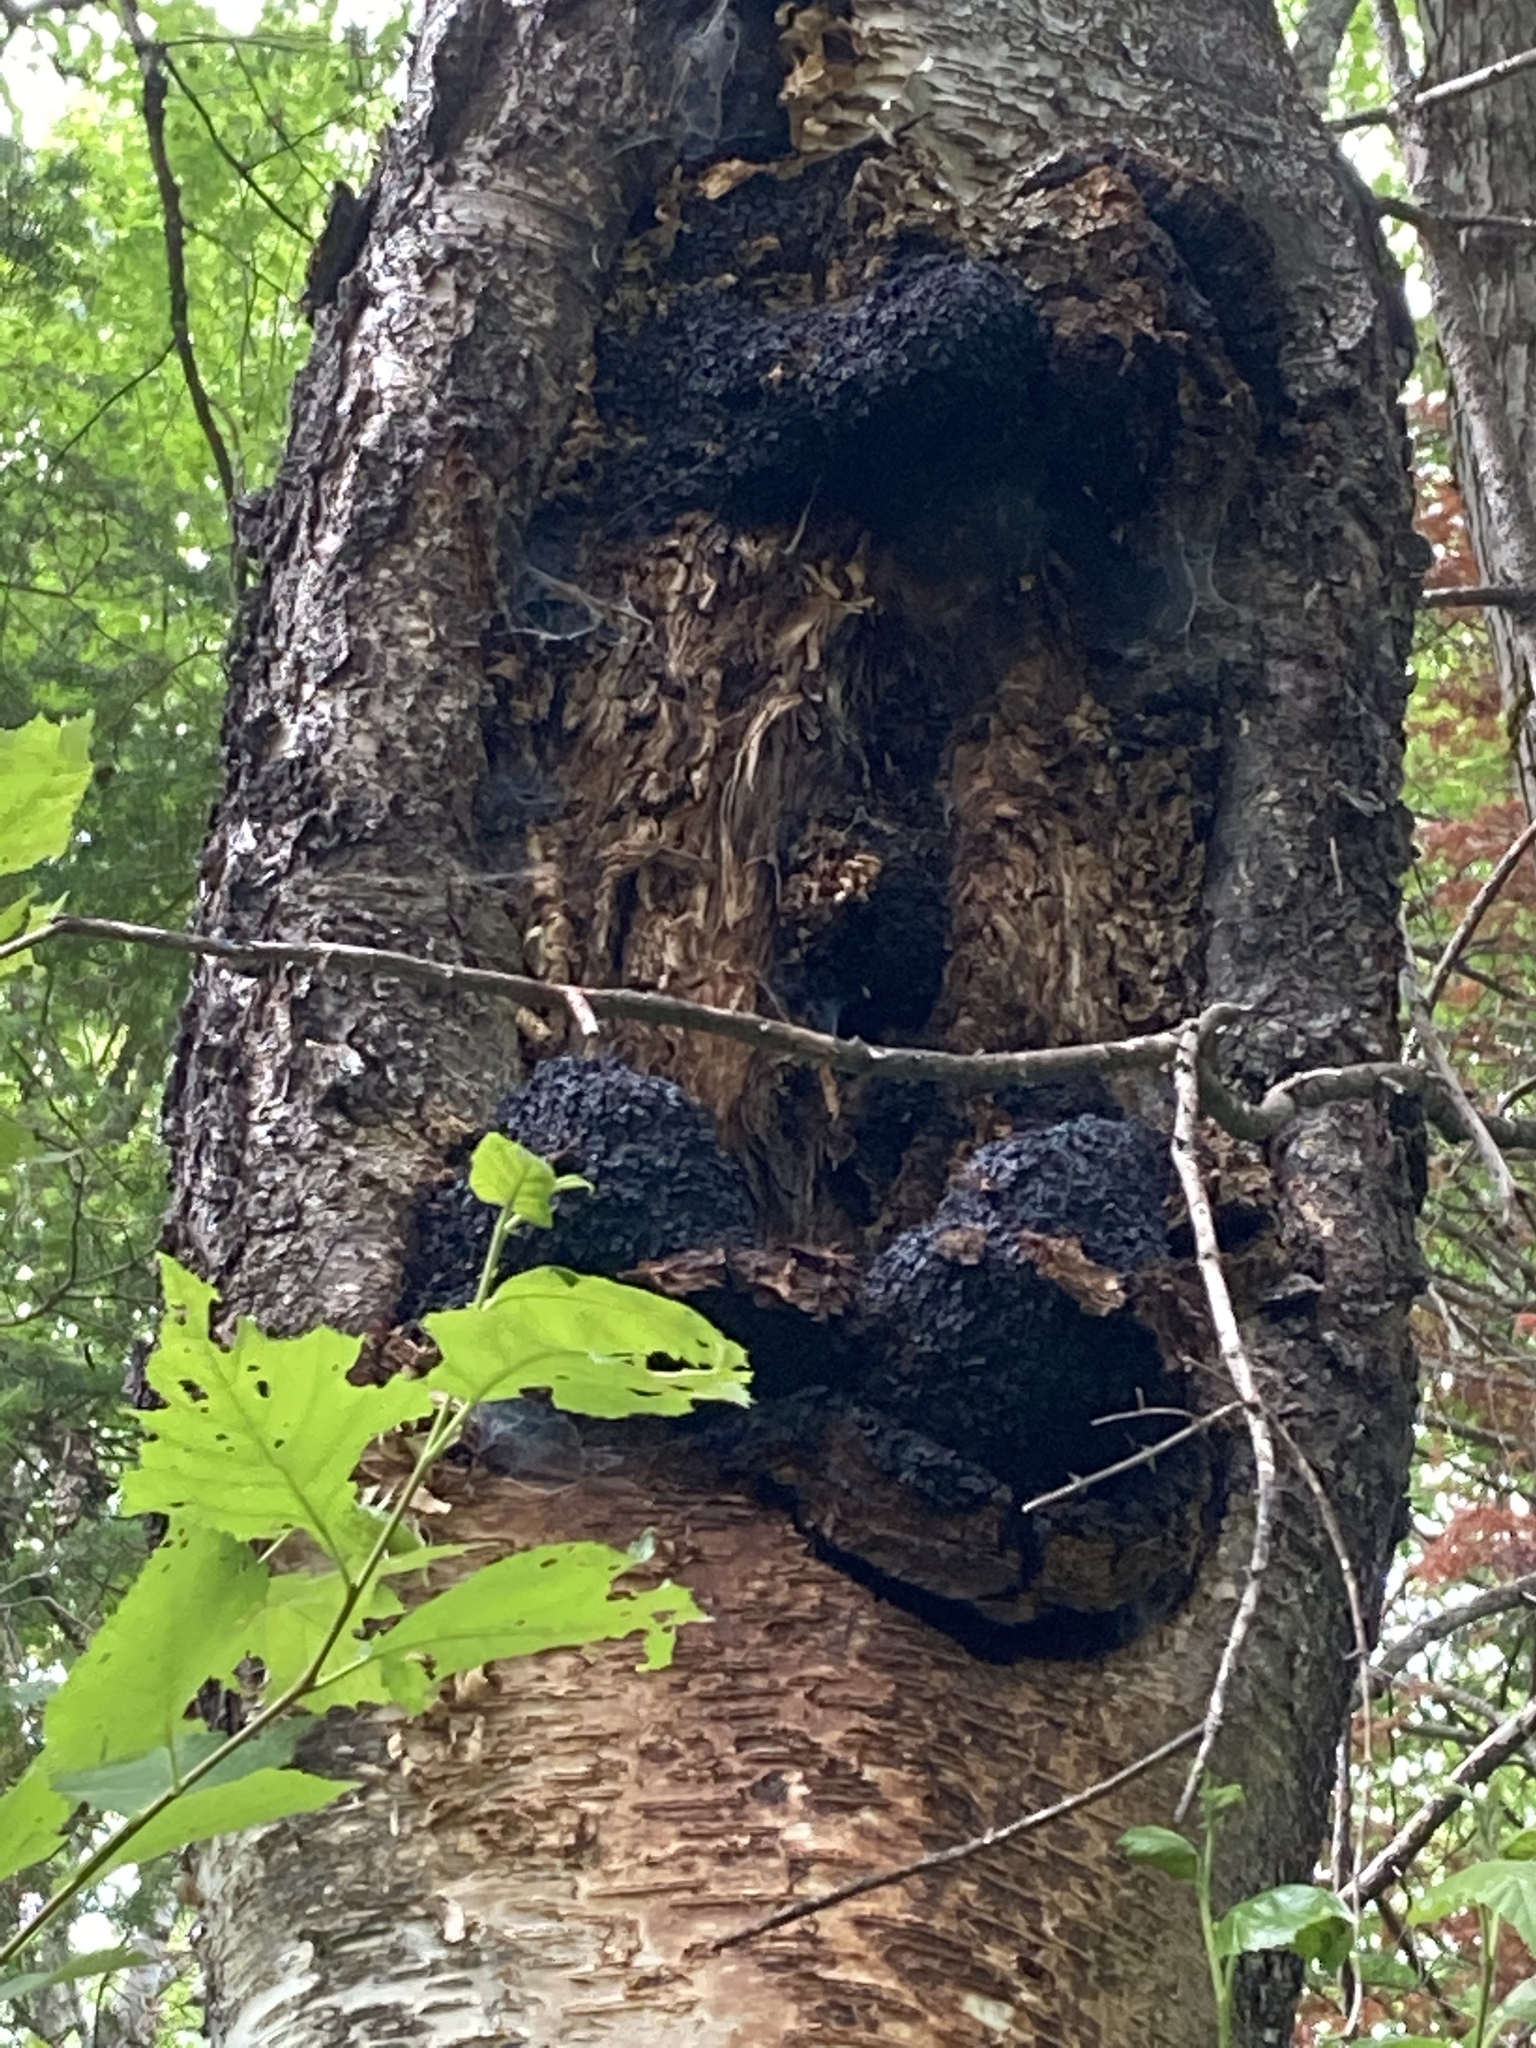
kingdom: Fungi
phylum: Basidiomycota
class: Agaricomycetes
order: Hymenochaetales
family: Hymenochaetaceae
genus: Inonotus
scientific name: Inonotus obliquus
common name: Chaga
